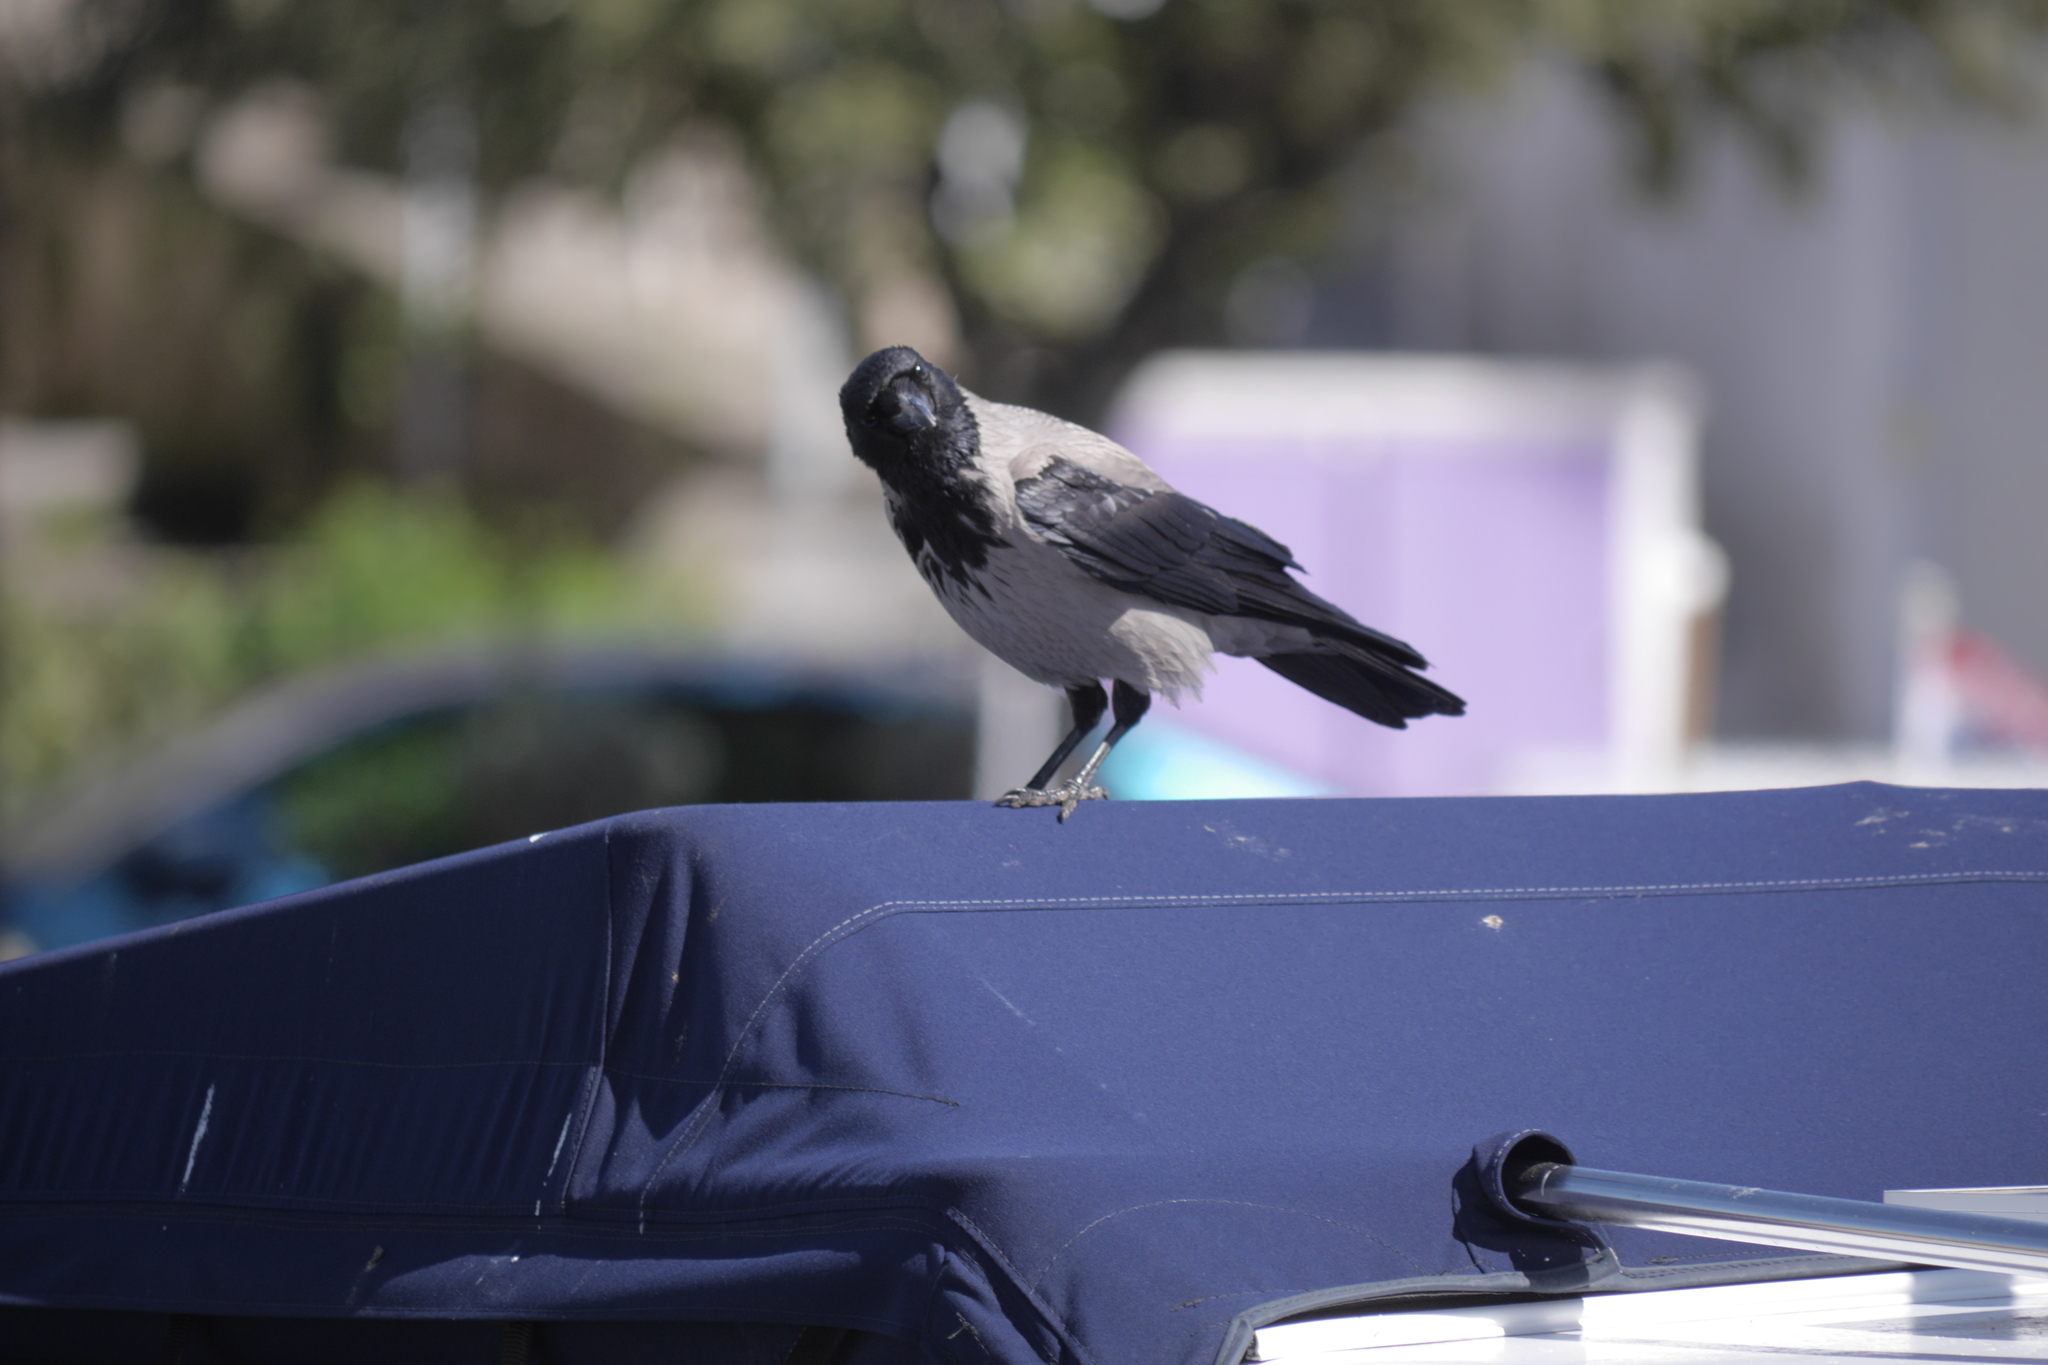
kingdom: Animalia
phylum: Chordata
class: Aves
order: Passeriformes
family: Corvidae
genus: Corvus
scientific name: Corvus cornix
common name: Hooded crow
